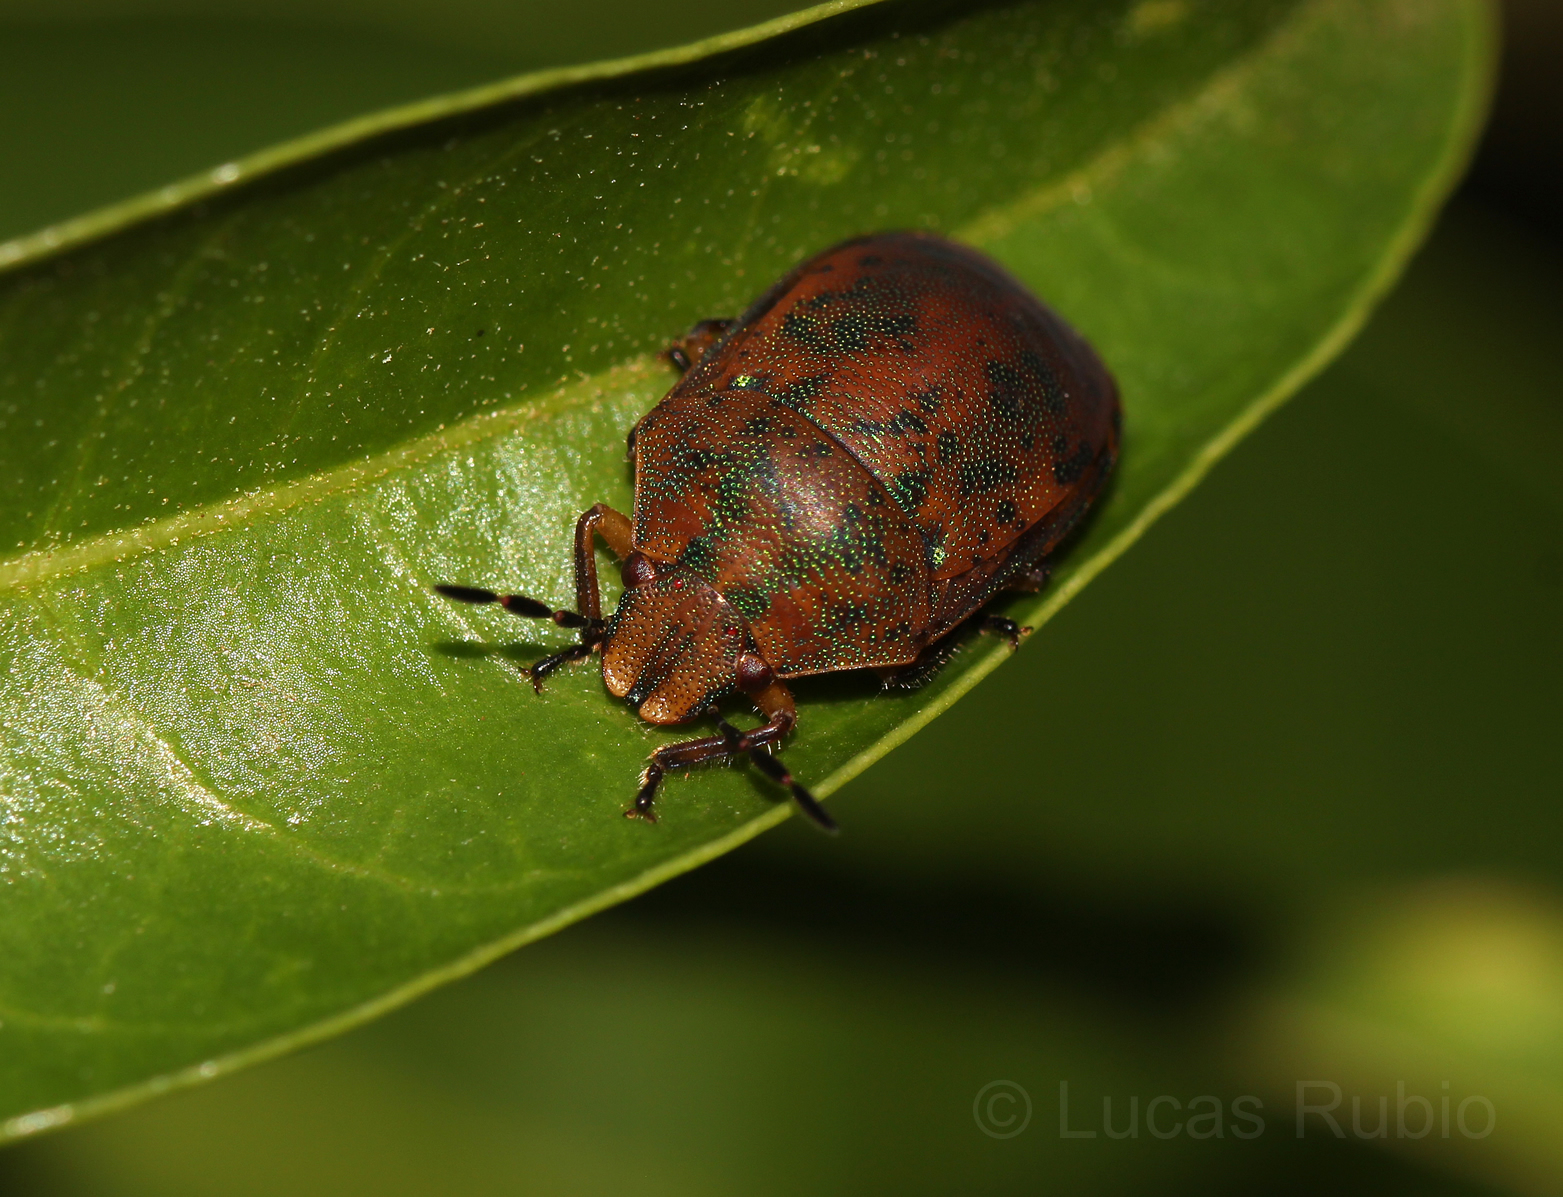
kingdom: Animalia
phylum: Arthropoda
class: Insecta
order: Hemiptera
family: Scutelleridae
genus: Coptochilus
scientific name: Coptochilus lentiginosus
